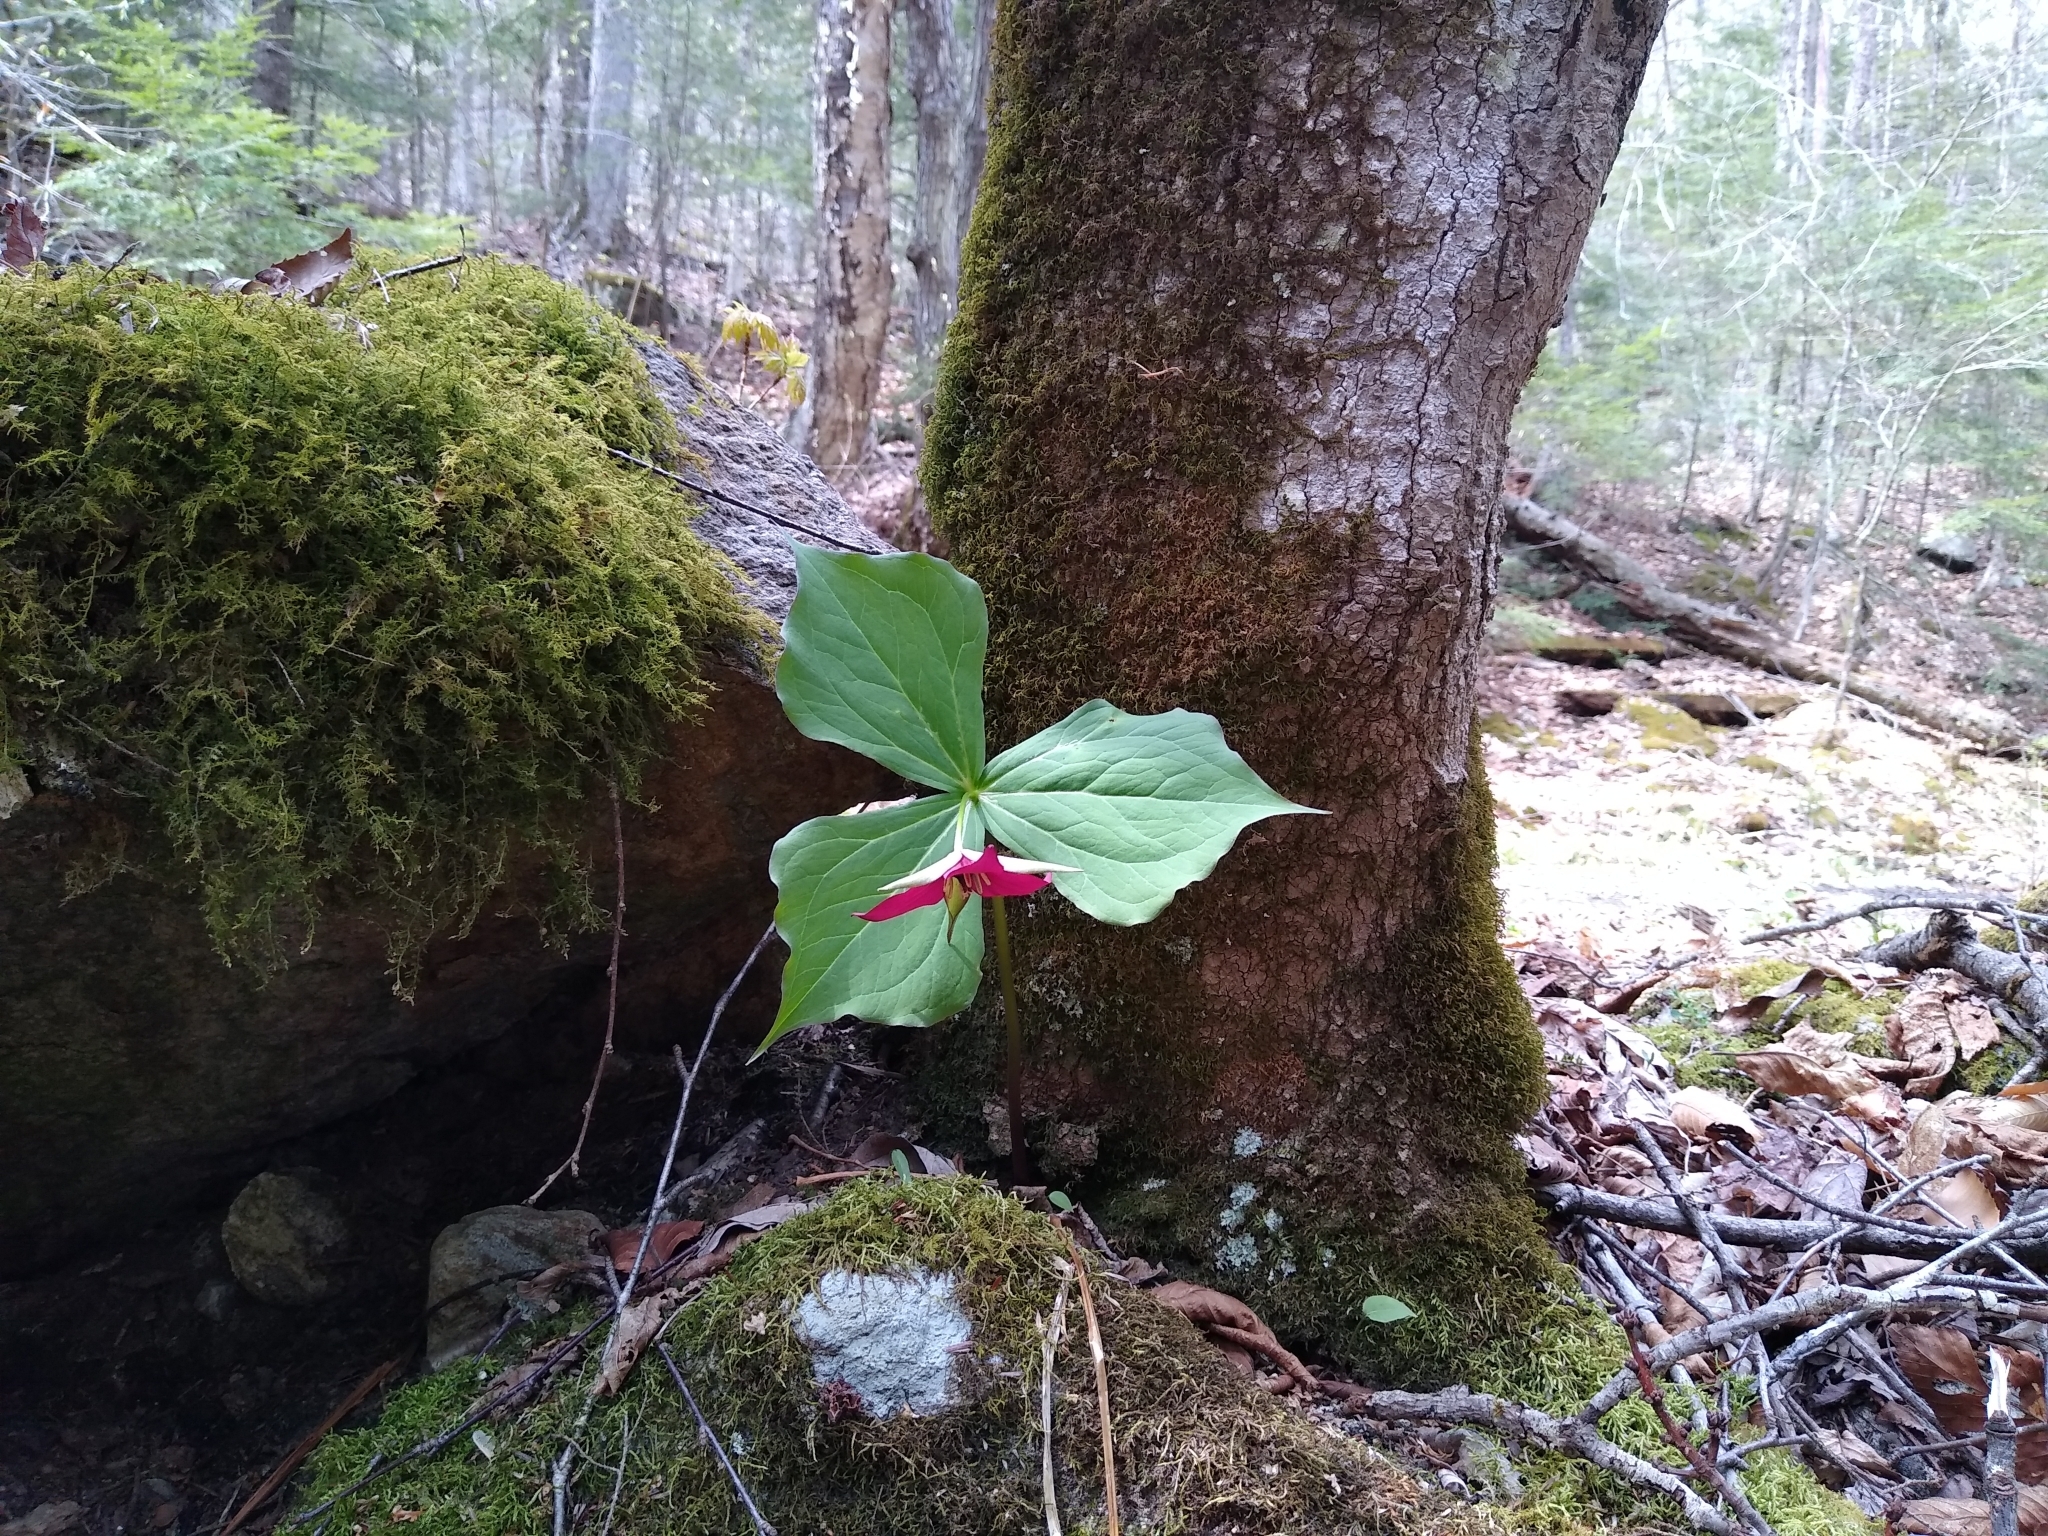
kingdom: Plantae
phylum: Tracheophyta
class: Liliopsida
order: Liliales
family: Melanthiaceae
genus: Trillium
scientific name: Trillium erectum
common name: Purple trillium
